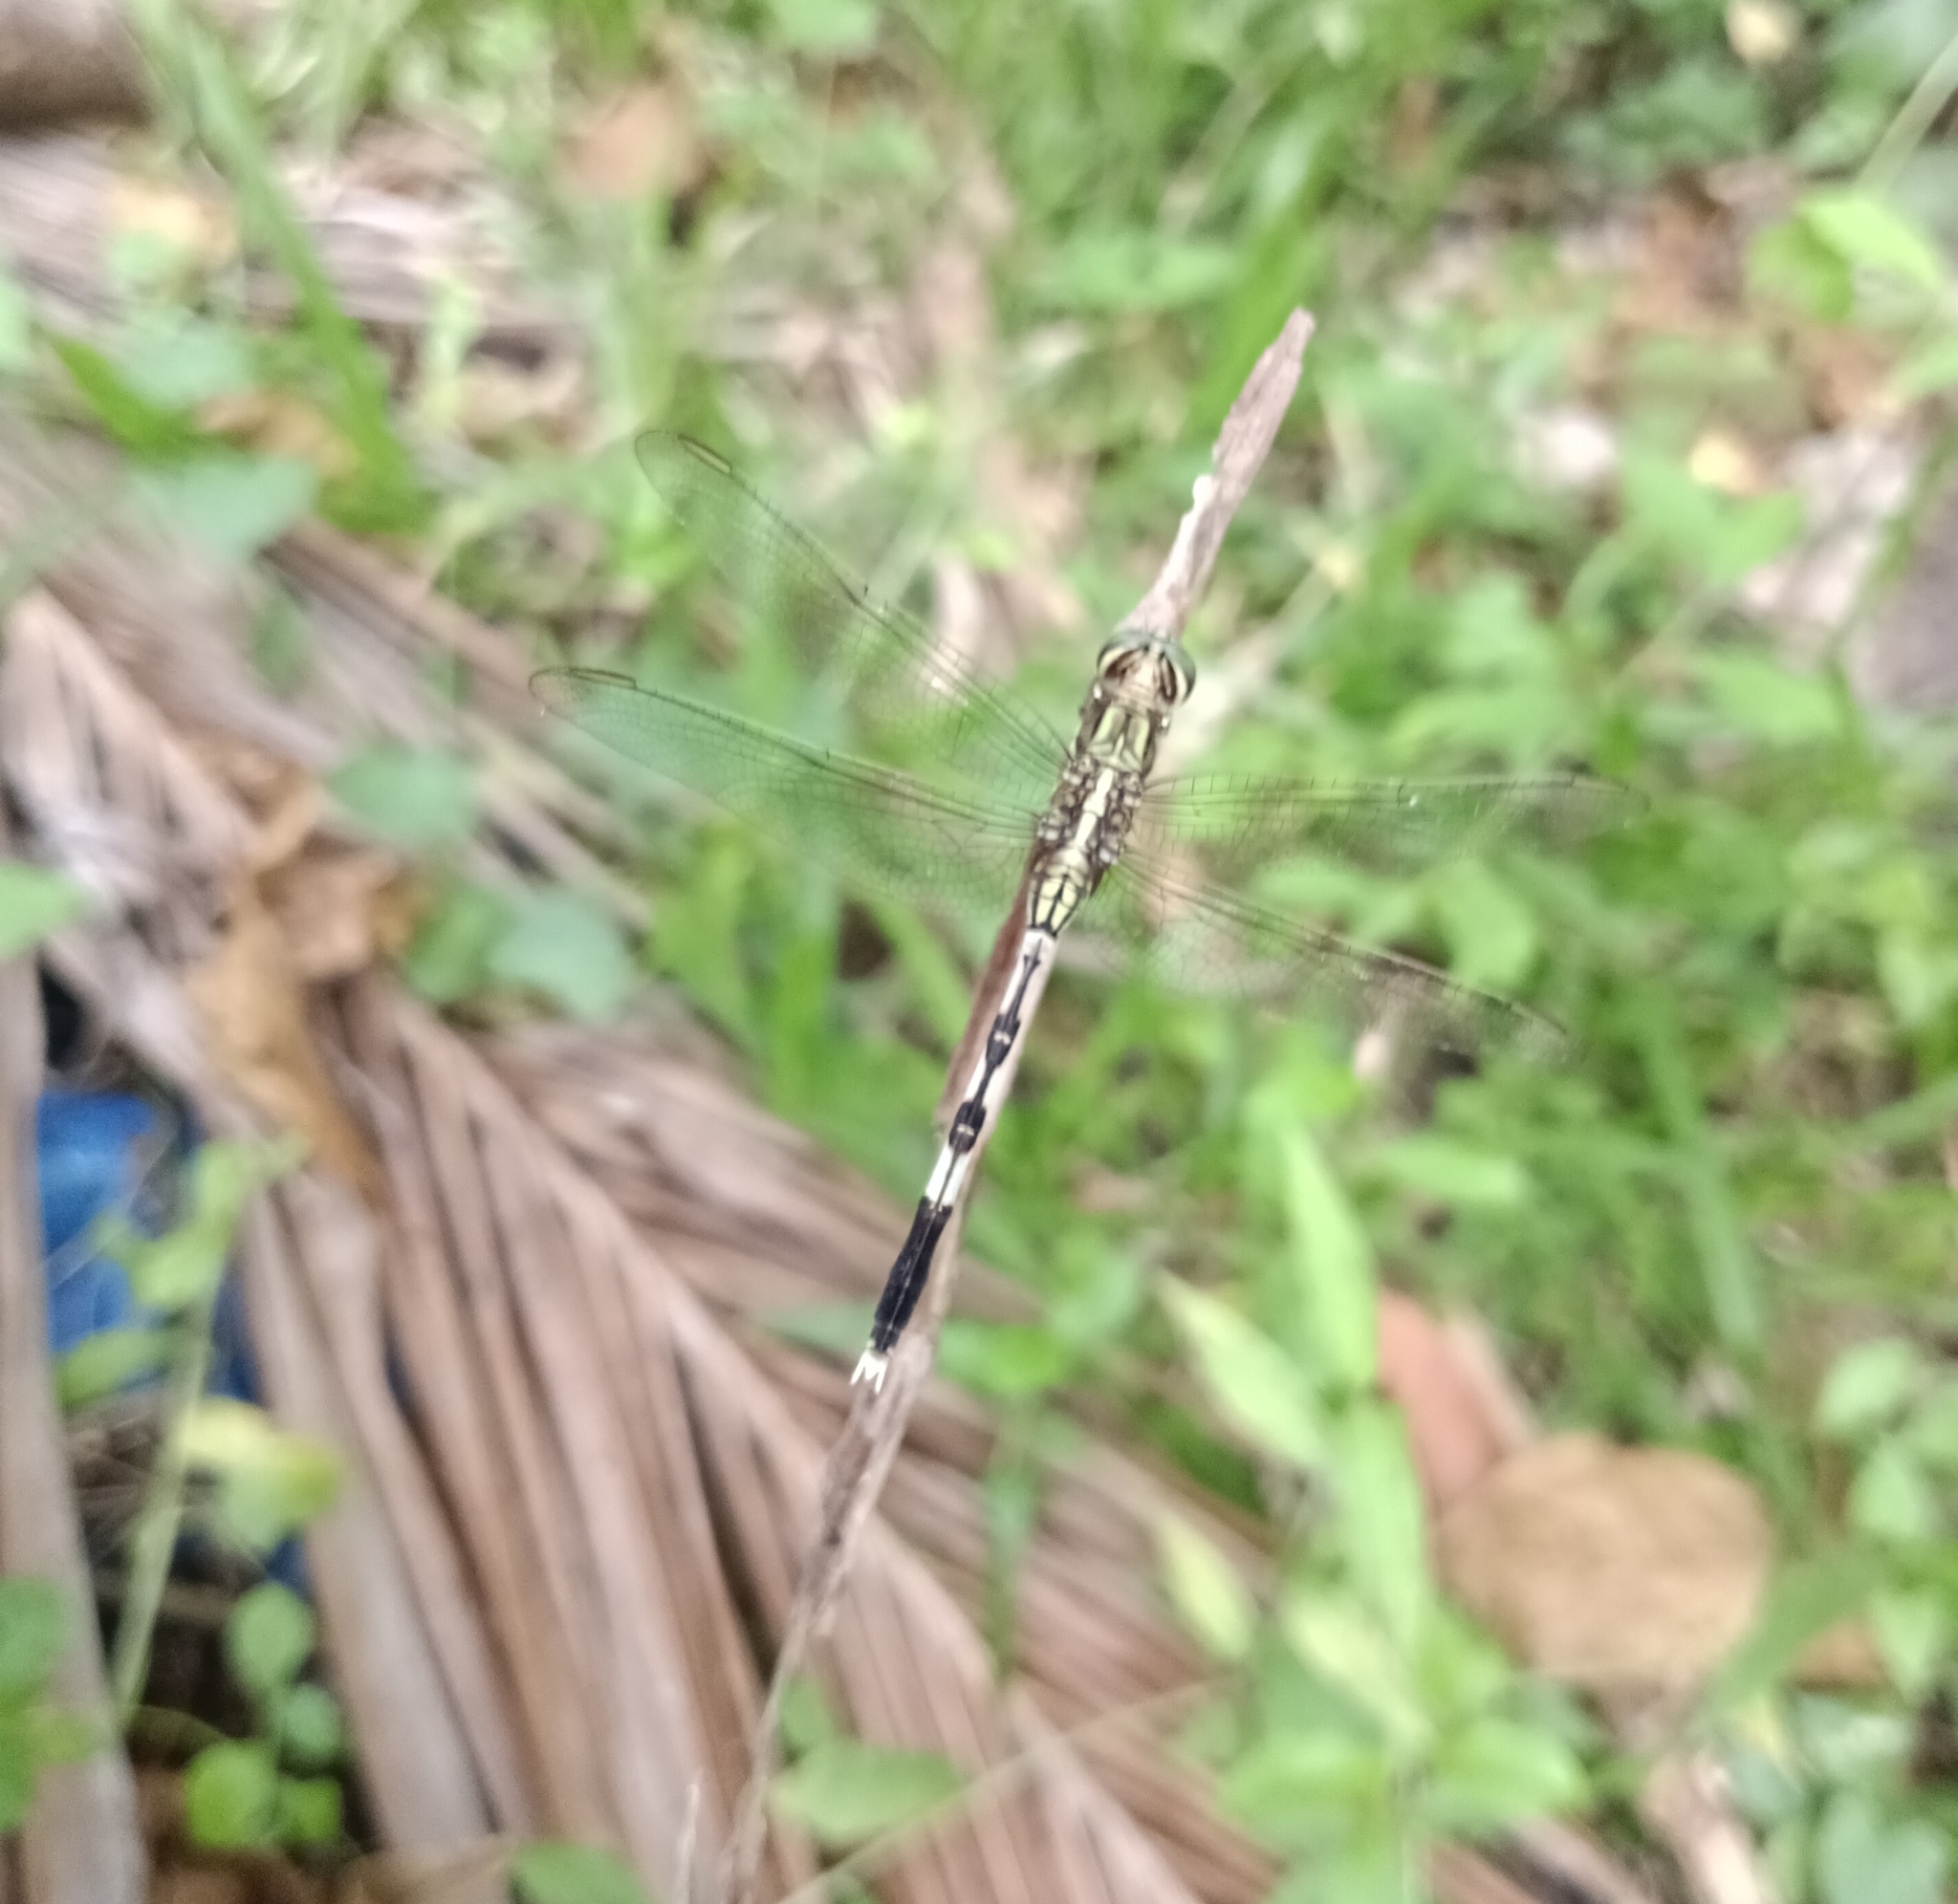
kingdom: Animalia
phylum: Arthropoda
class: Insecta
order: Odonata
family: Libellulidae
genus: Orthetrum
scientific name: Orthetrum sabina
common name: Slender skimmer
